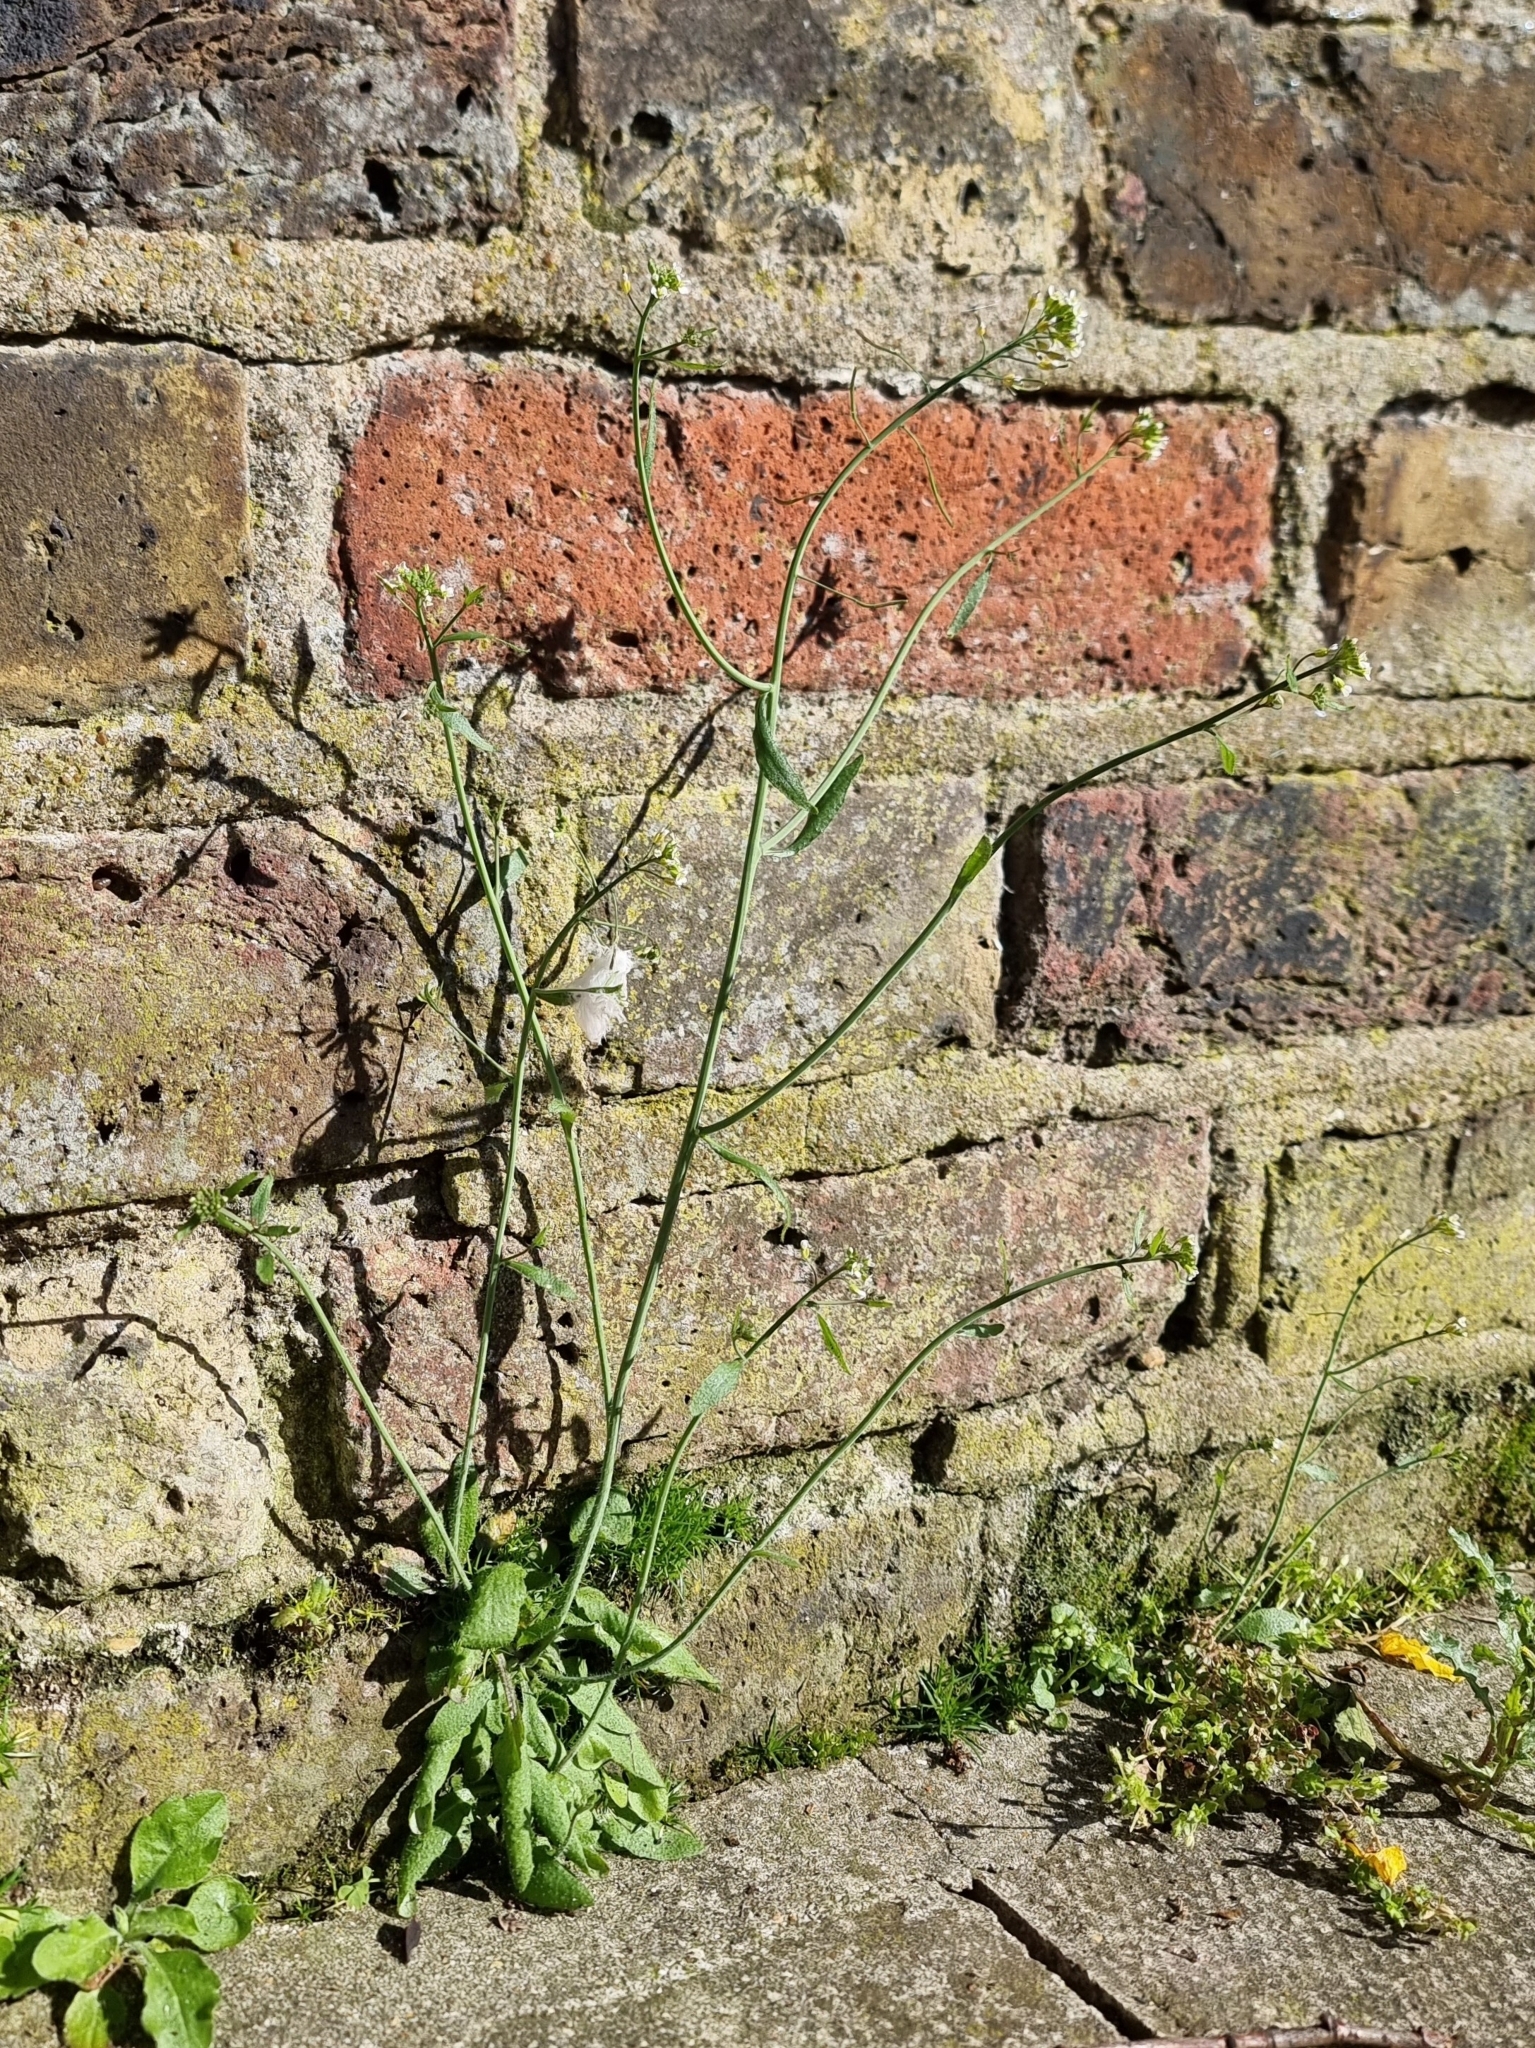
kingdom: Plantae
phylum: Tracheophyta
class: Magnoliopsida
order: Brassicales
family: Brassicaceae
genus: Arabidopsis
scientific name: Arabidopsis thaliana
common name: Thale cress
